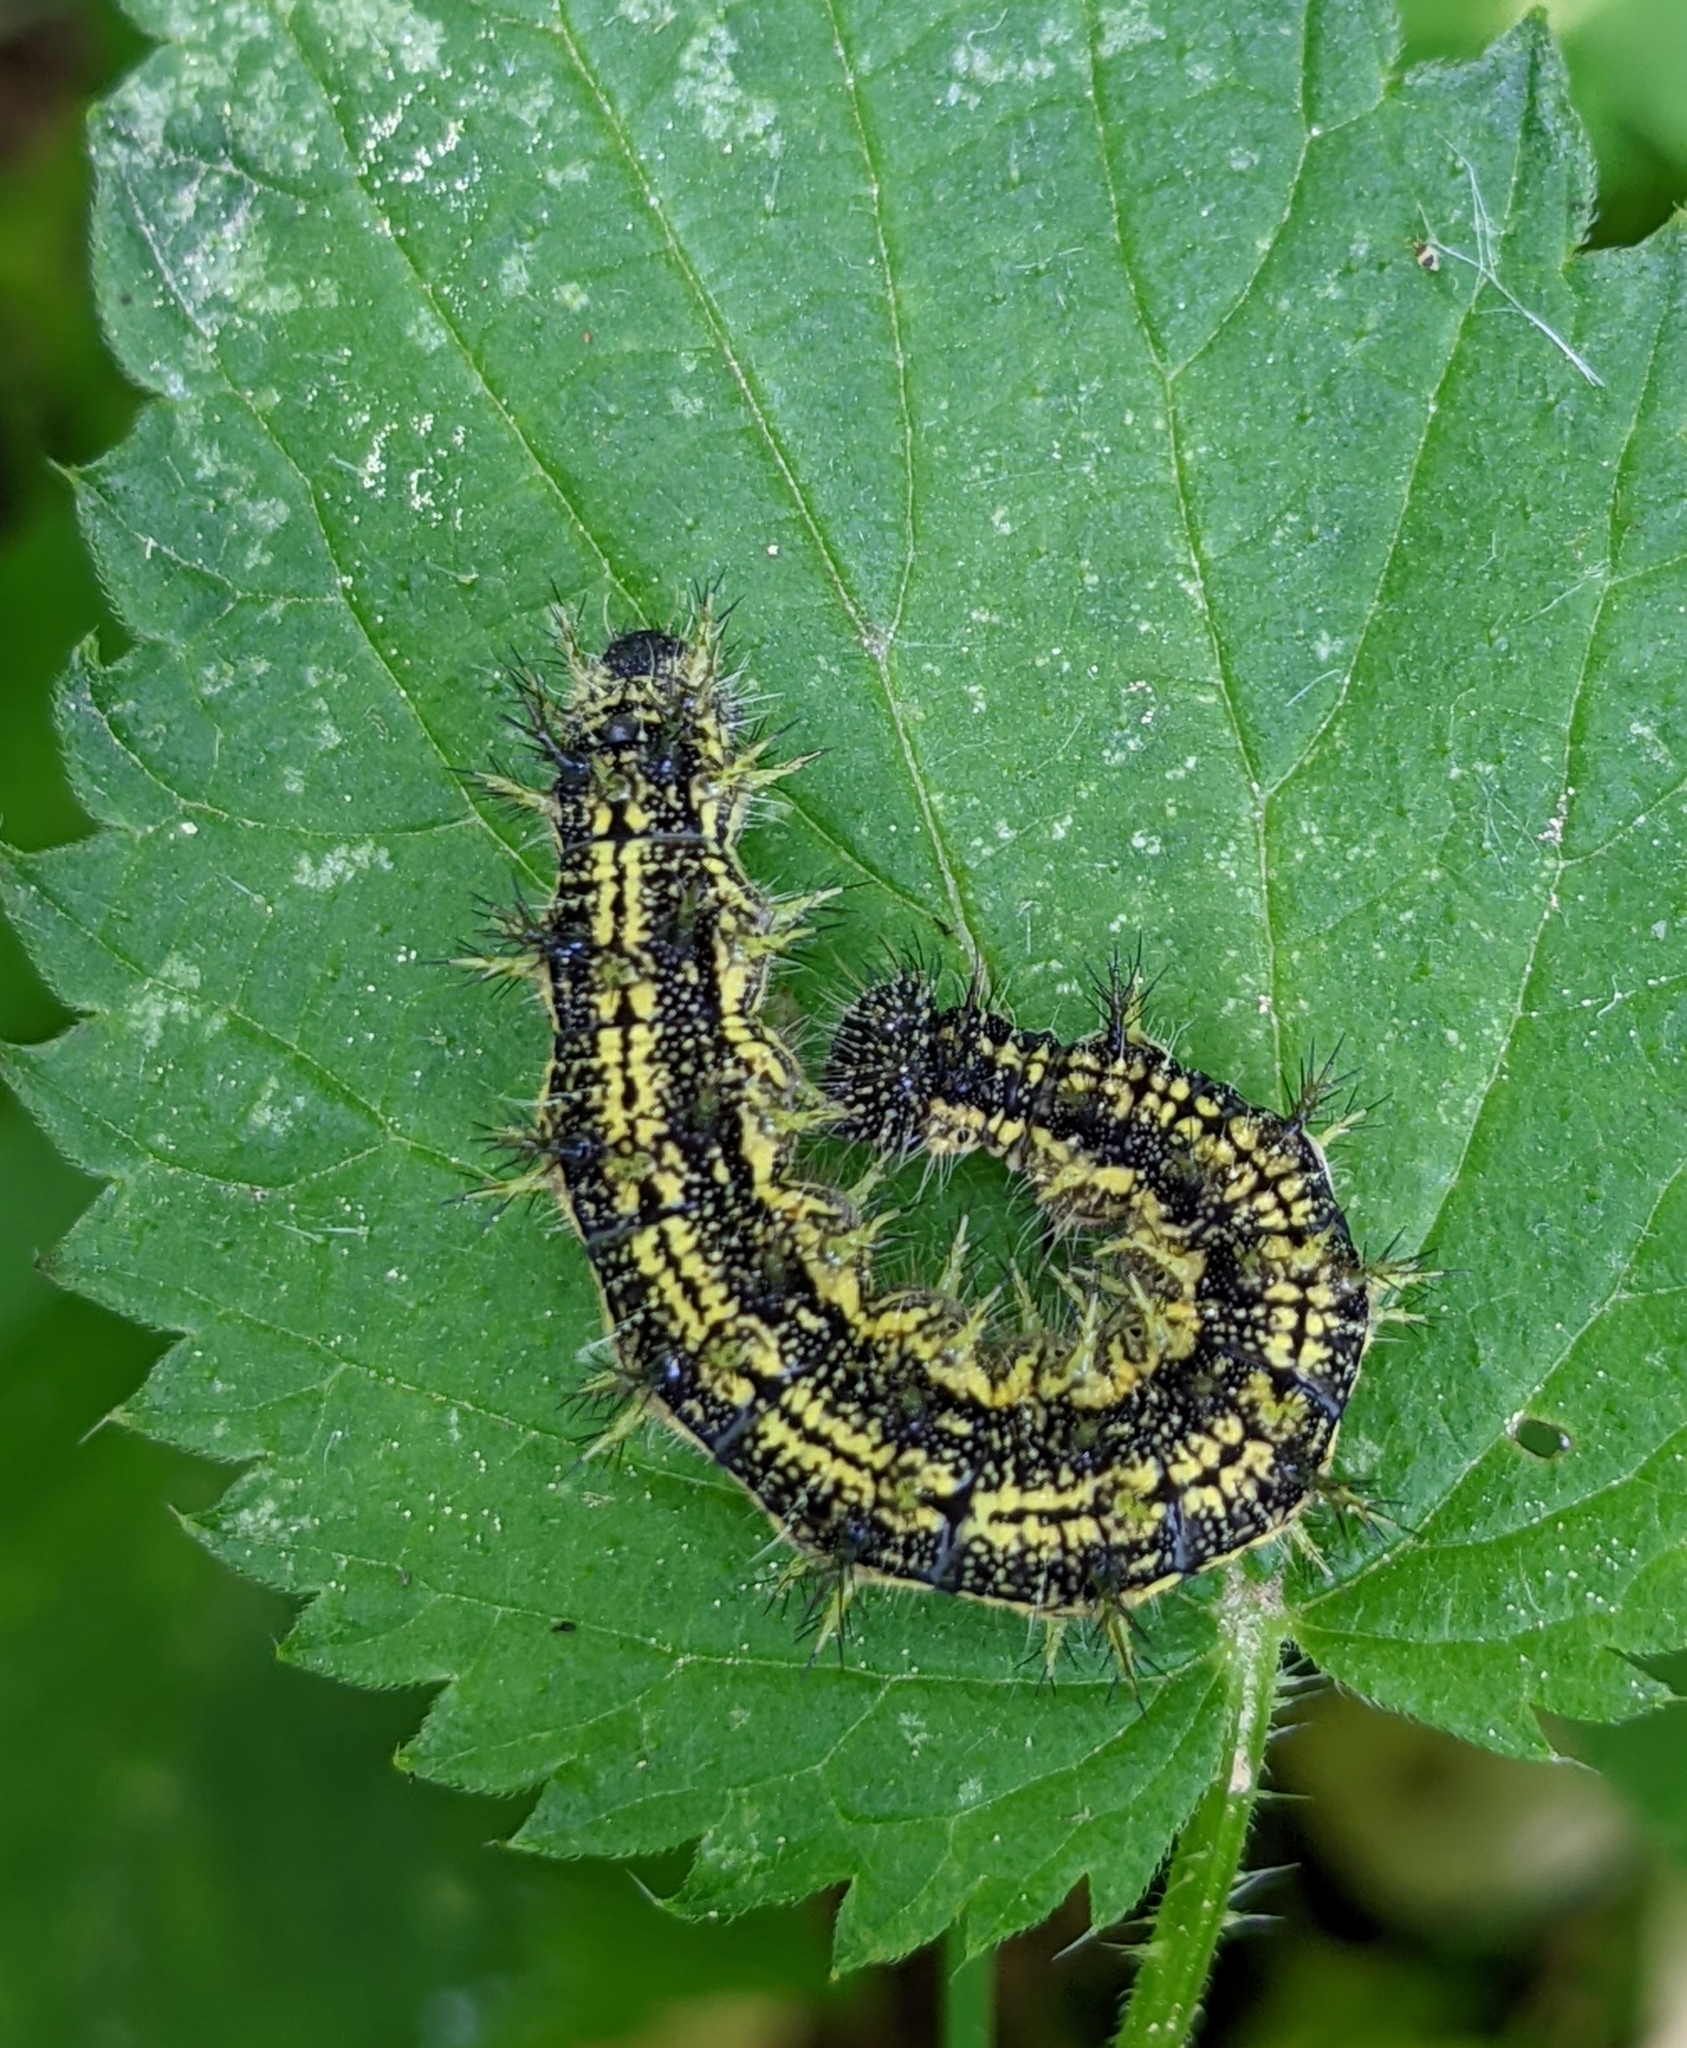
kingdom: Animalia
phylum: Arthropoda
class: Insecta
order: Lepidoptera
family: Nymphalidae
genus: Aglais
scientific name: Aglais urticae
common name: Small tortoiseshell
